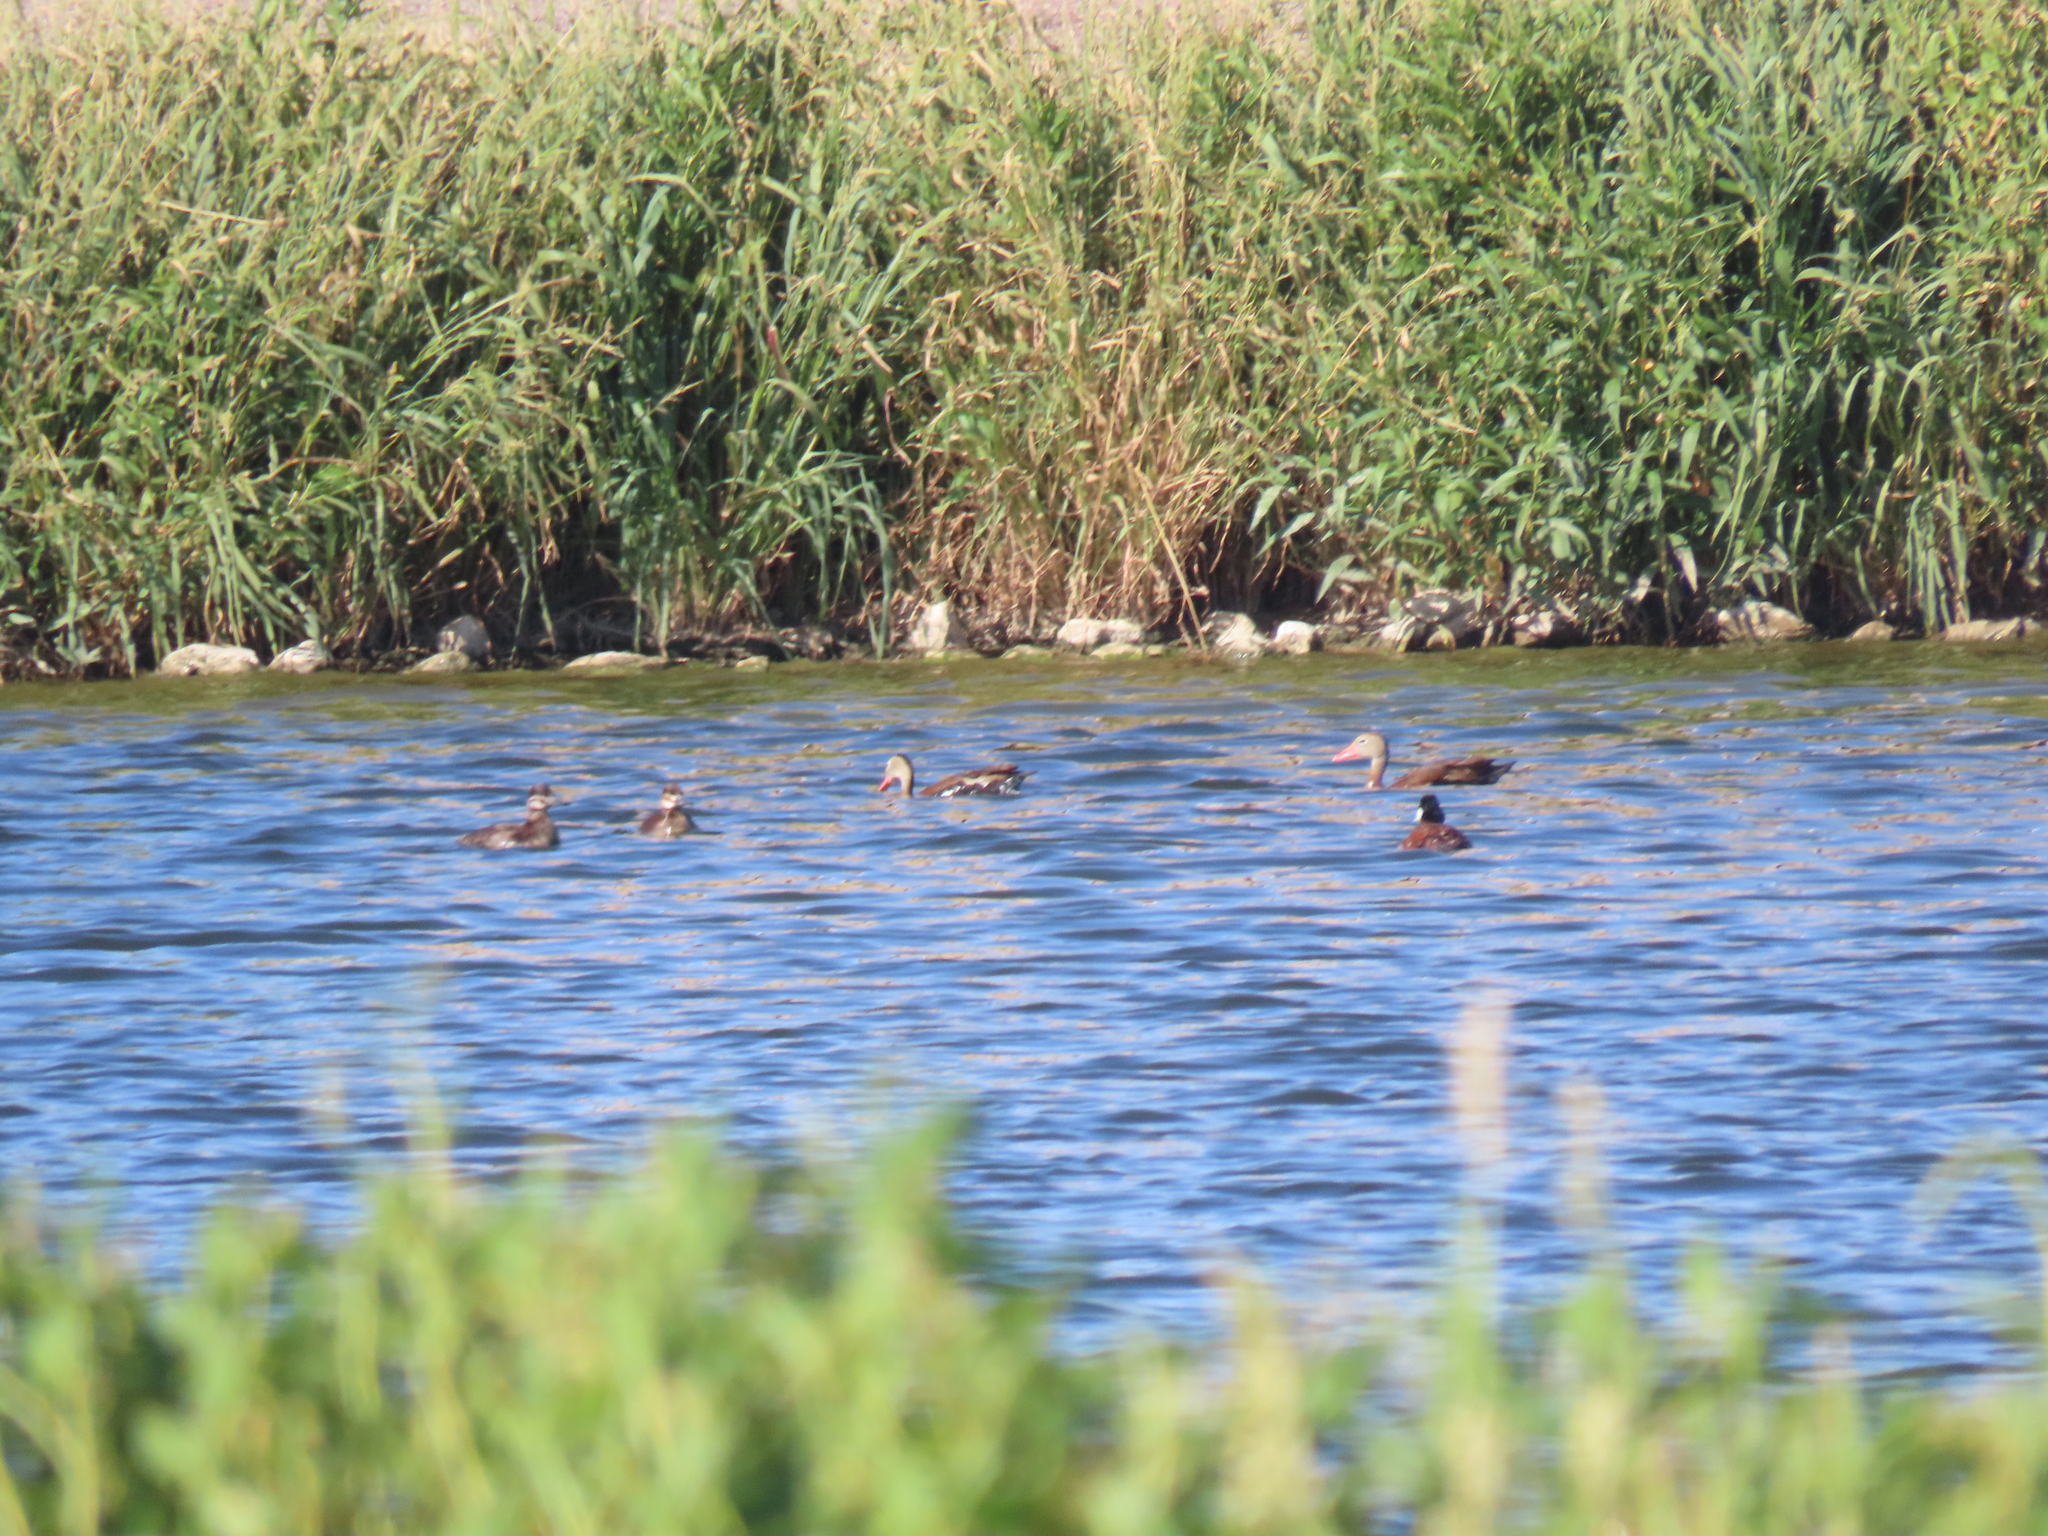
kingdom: Animalia
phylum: Chordata
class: Aves
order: Anseriformes
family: Anatidae
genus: Oxyura
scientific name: Oxyura jamaicensis
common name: Ruddy duck
